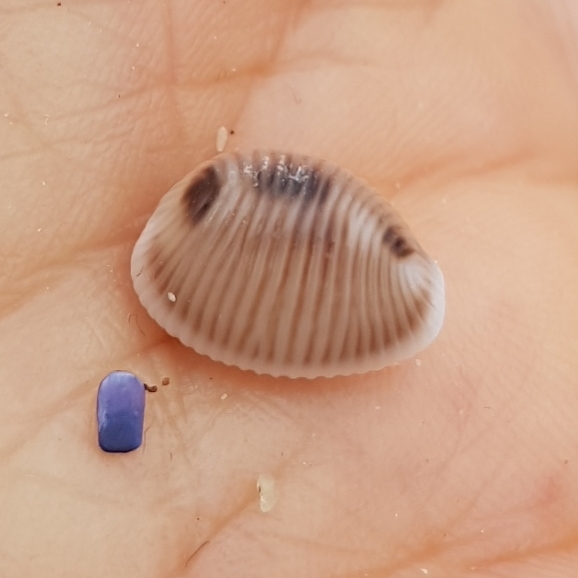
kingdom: Animalia
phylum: Mollusca
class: Gastropoda
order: Littorinimorpha
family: Triviidae
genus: Trivia
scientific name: Trivia monacha
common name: Spotted cowrie
